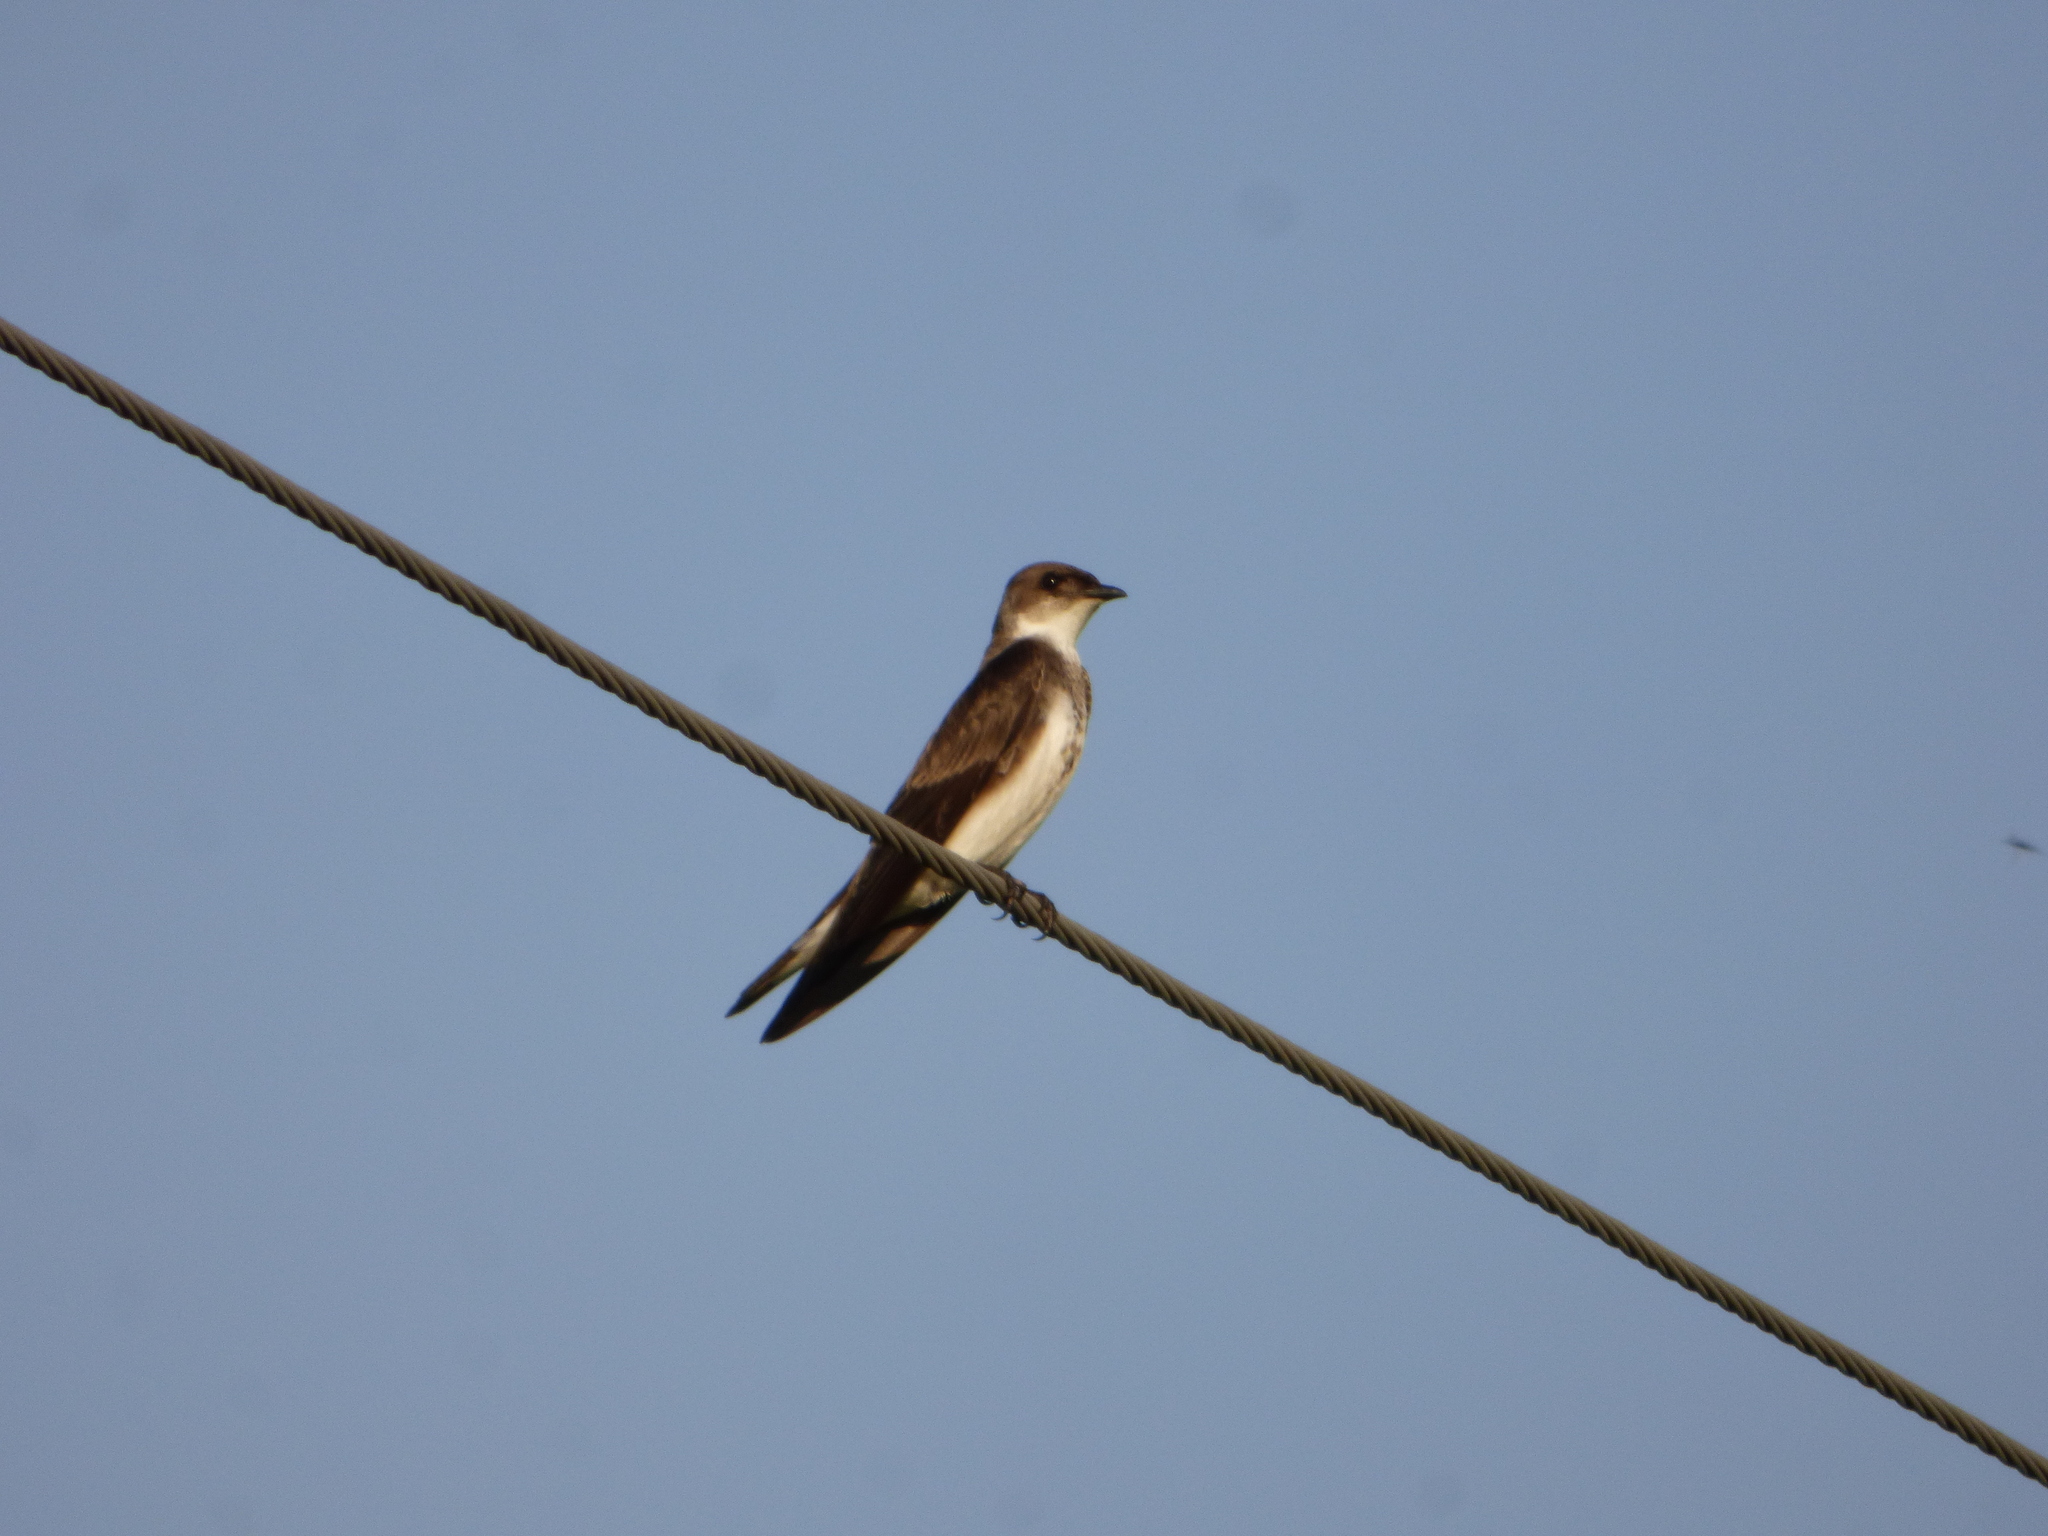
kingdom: Animalia
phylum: Chordata
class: Aves
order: Passeriformes
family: Hirundinidae
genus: Progne
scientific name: Progne tapera
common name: Brown-chested martin
